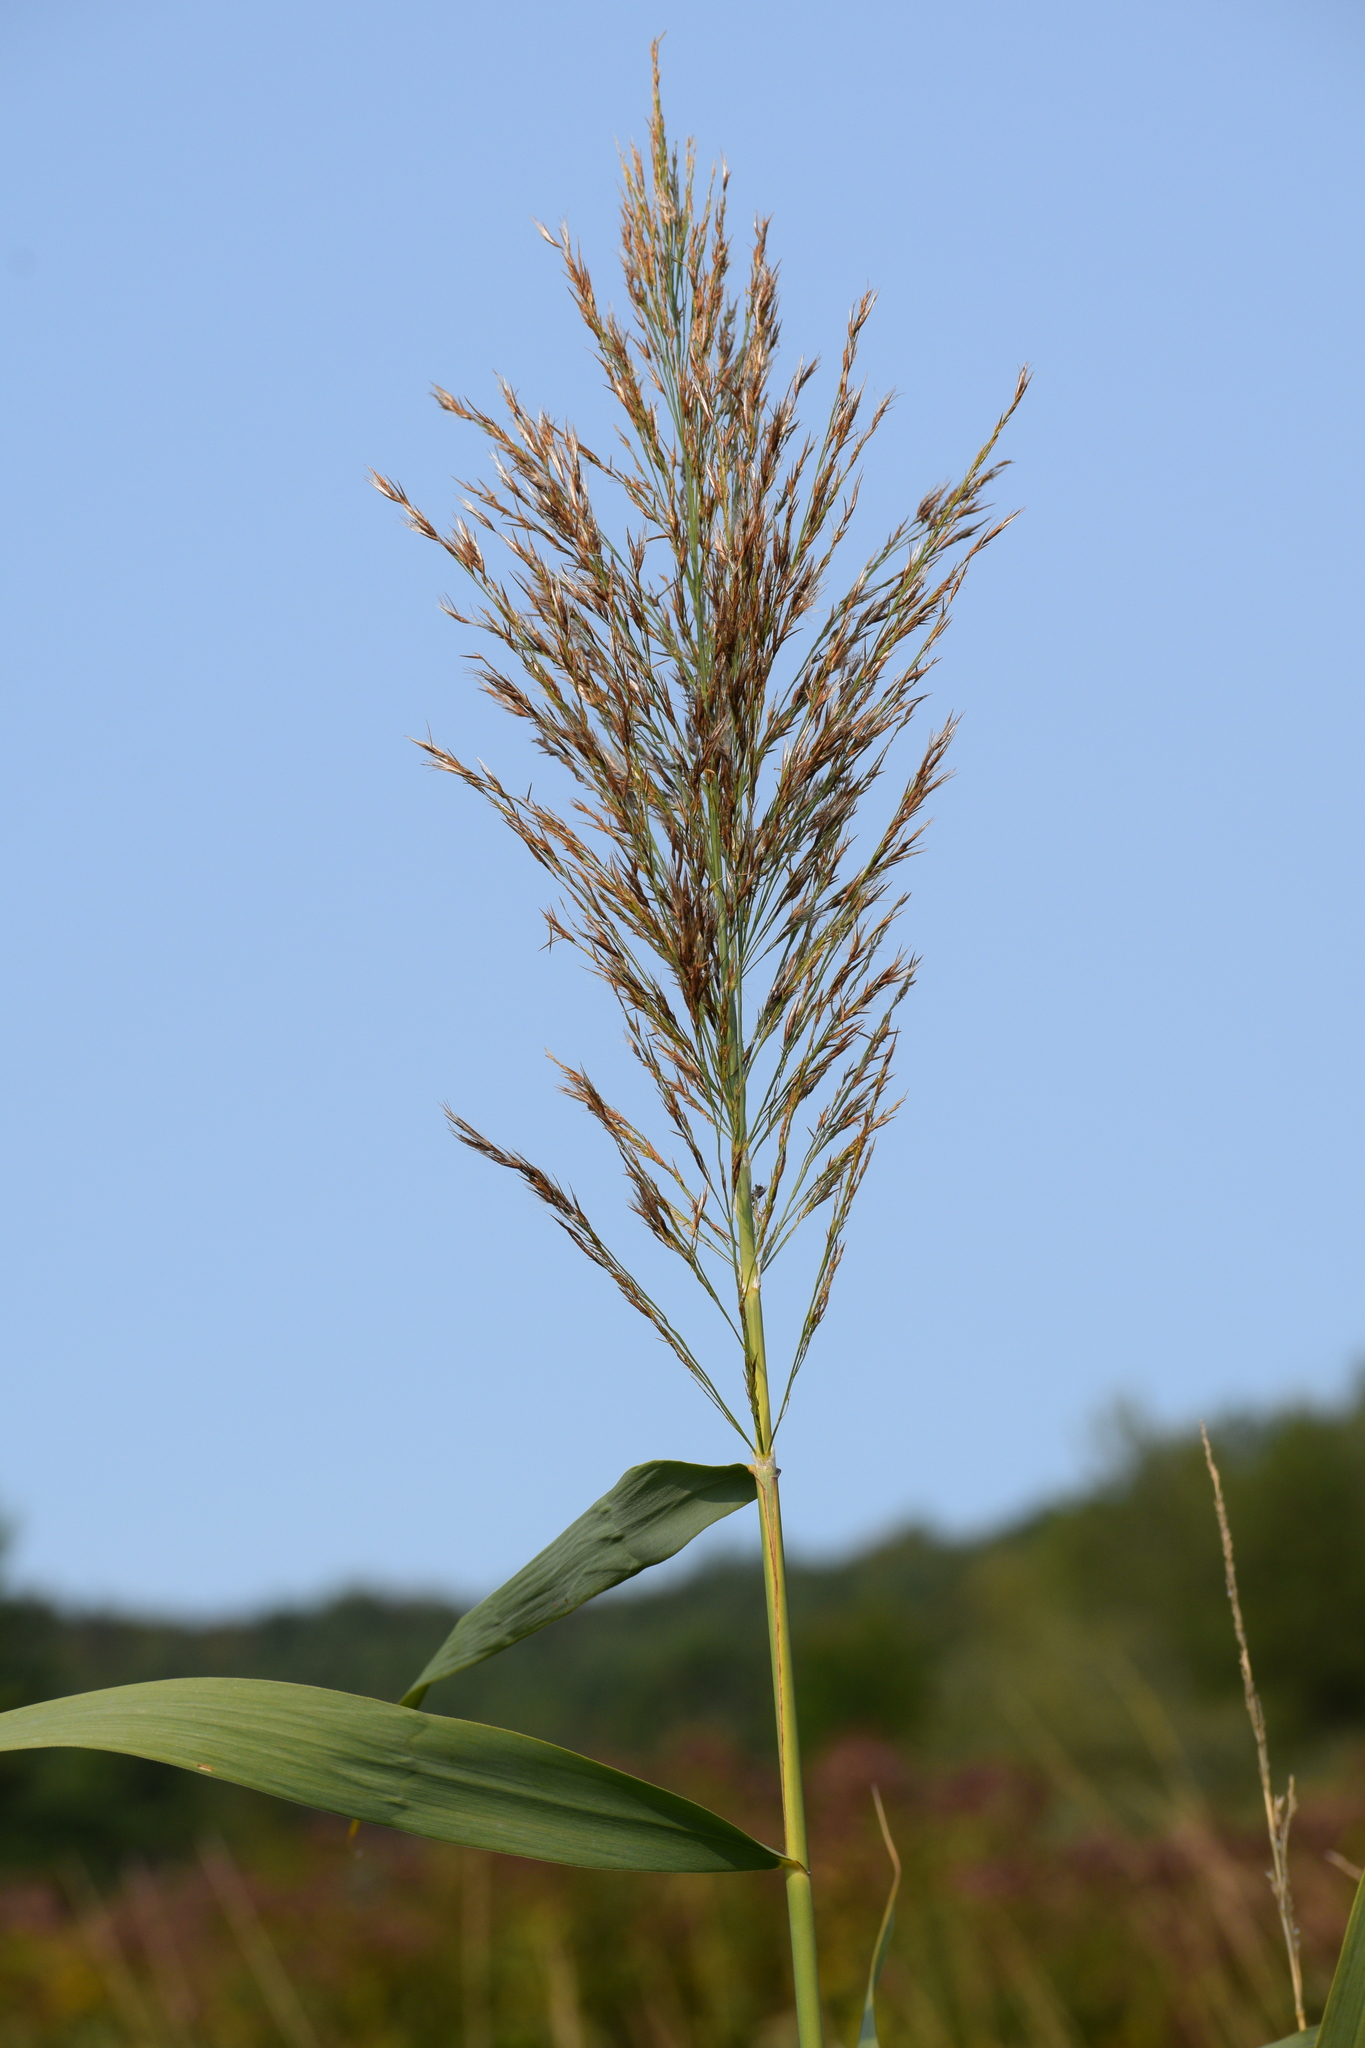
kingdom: Plantae
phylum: Tracheophyta
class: Liliopsida
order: Poales
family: Poaceae
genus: Phragmites
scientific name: Phragmites australis
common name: Common reed
